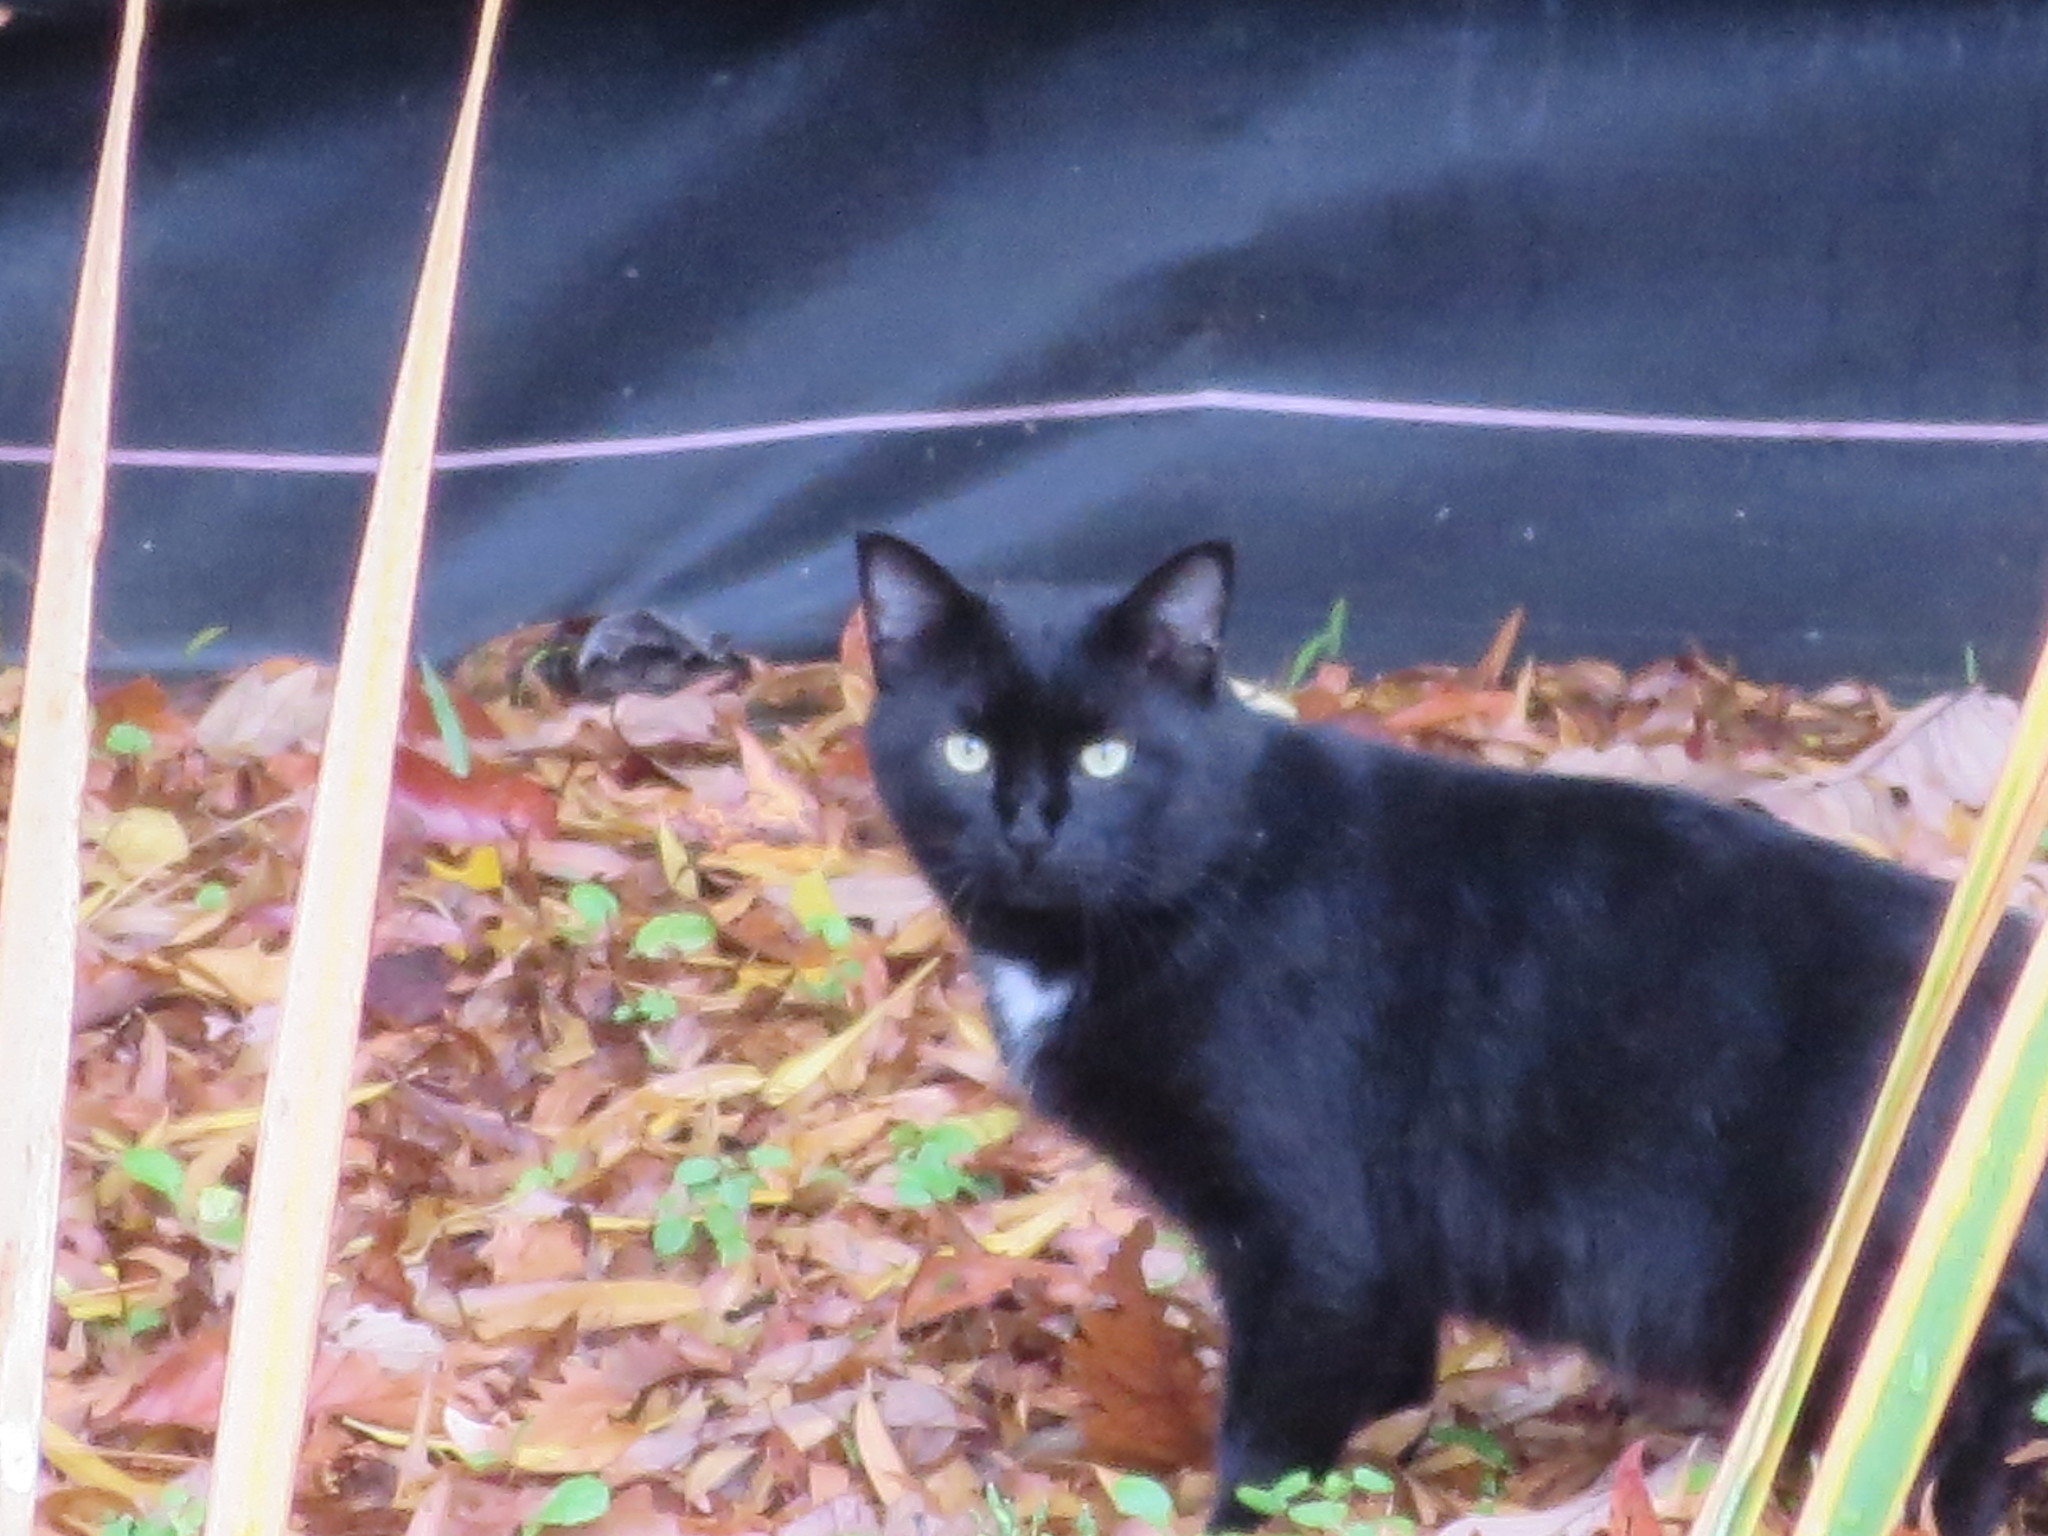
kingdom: Animalia
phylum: Chordata
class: Mammalia
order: Carnivora
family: Felidae
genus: Felis
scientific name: Felis catus
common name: Domestic cat
